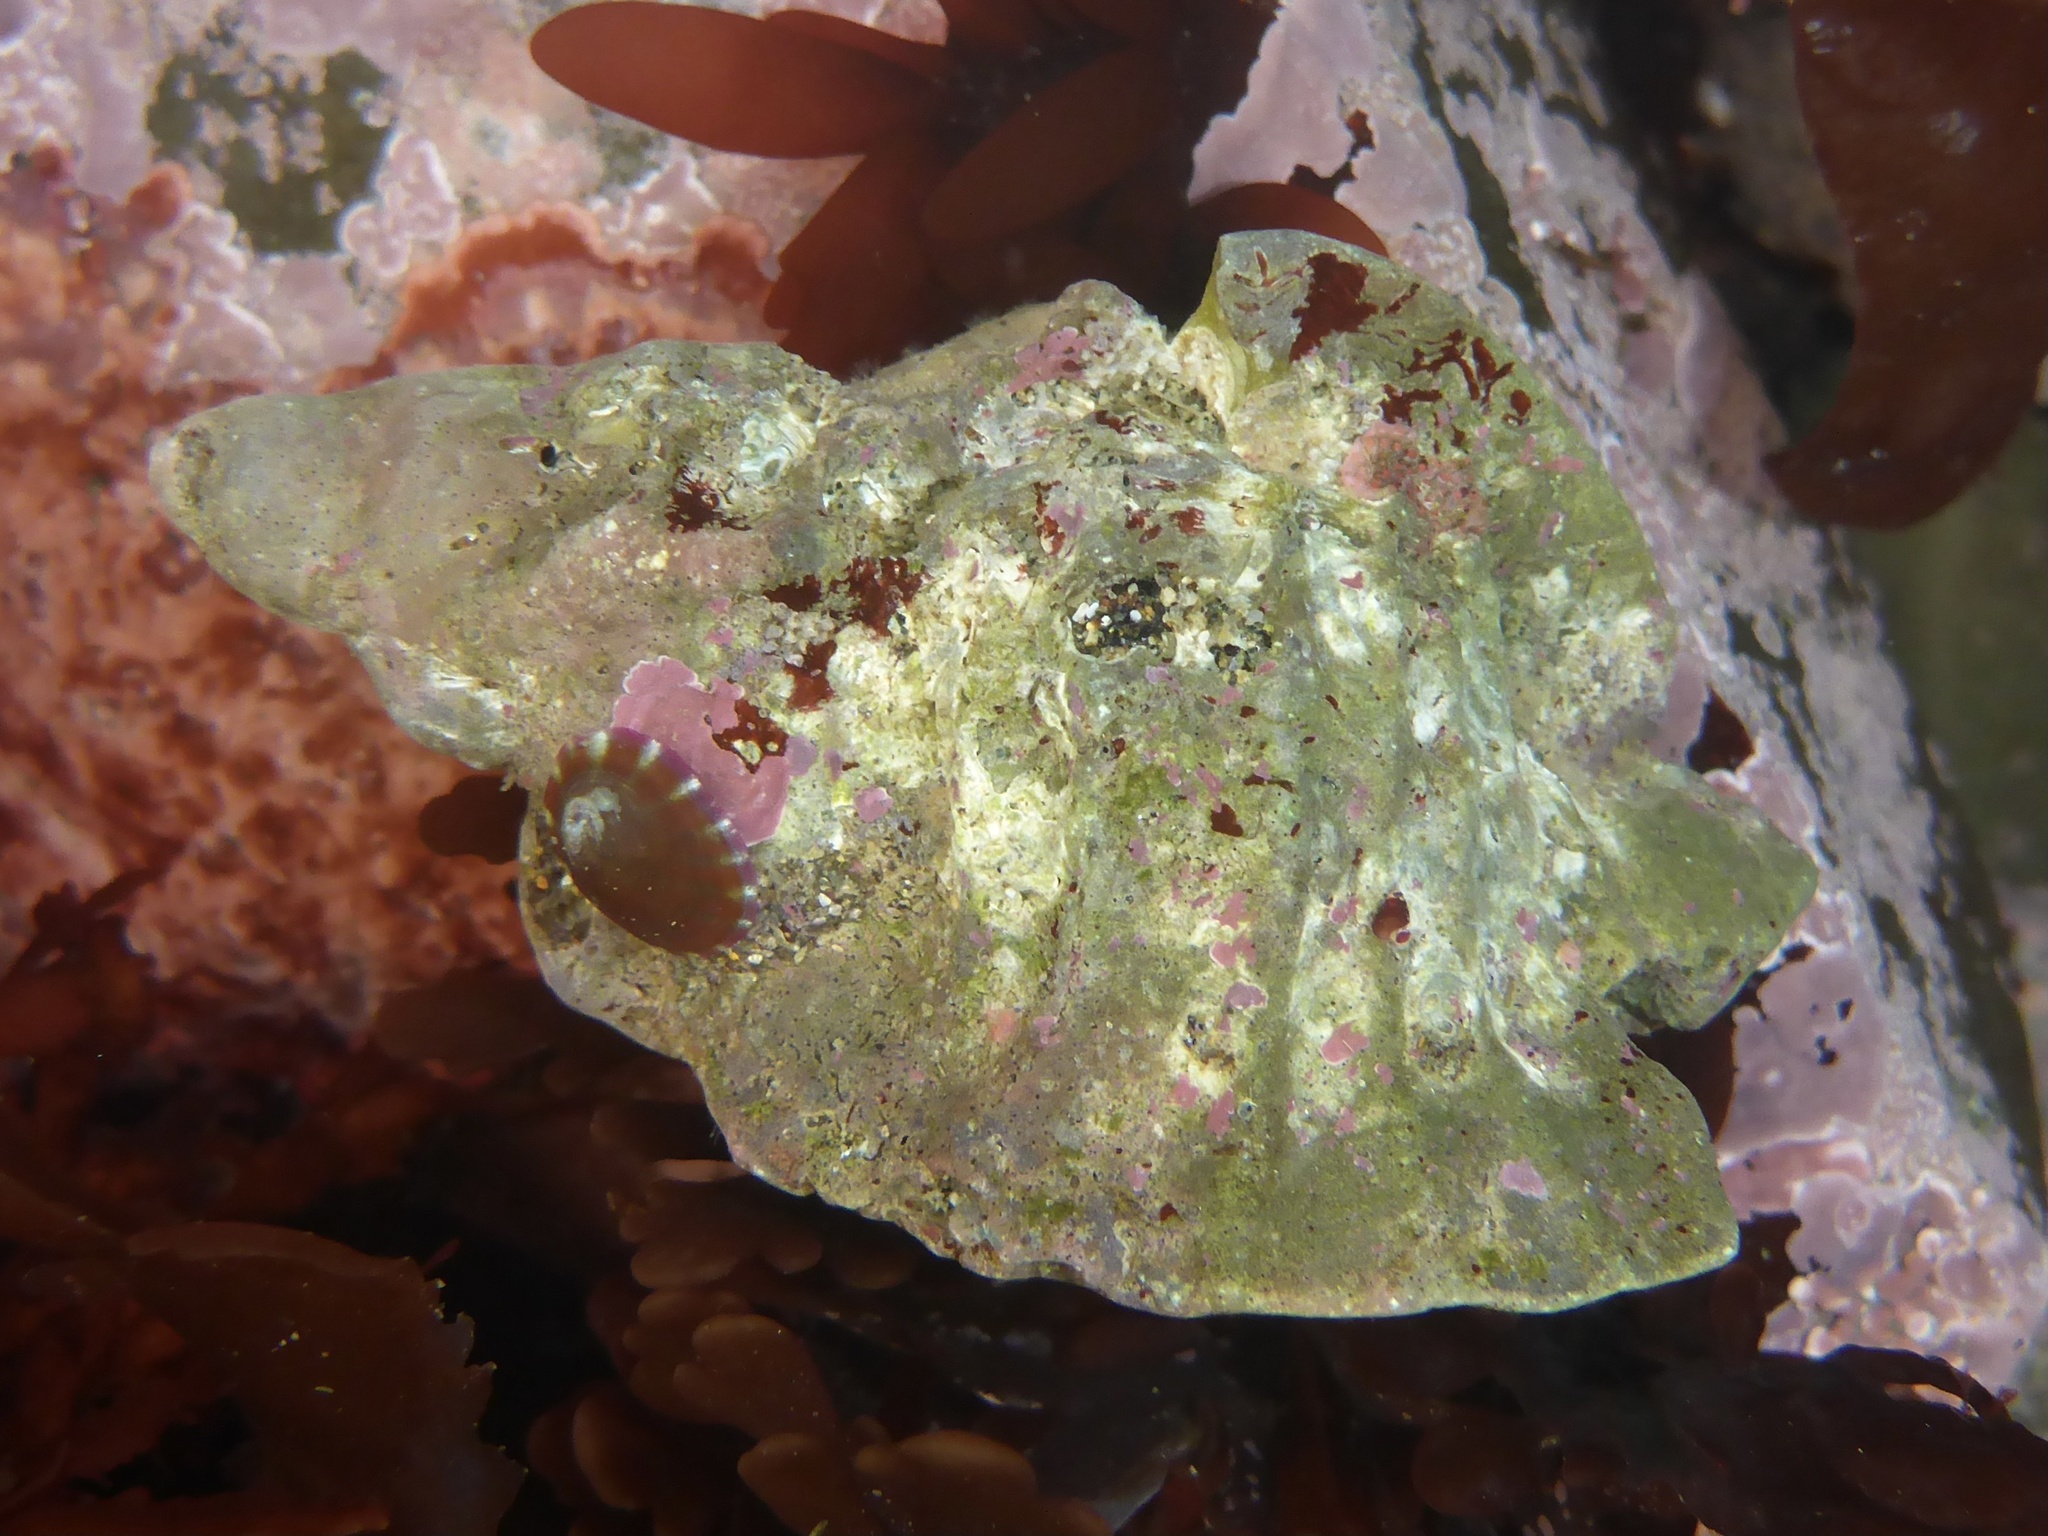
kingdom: Animalia
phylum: Mollusca
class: Gastropoda
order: Neogastropoda
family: Muricidae
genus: Ceratostoma
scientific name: Ceratostoma foliatum
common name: Foliate thorn purpura
